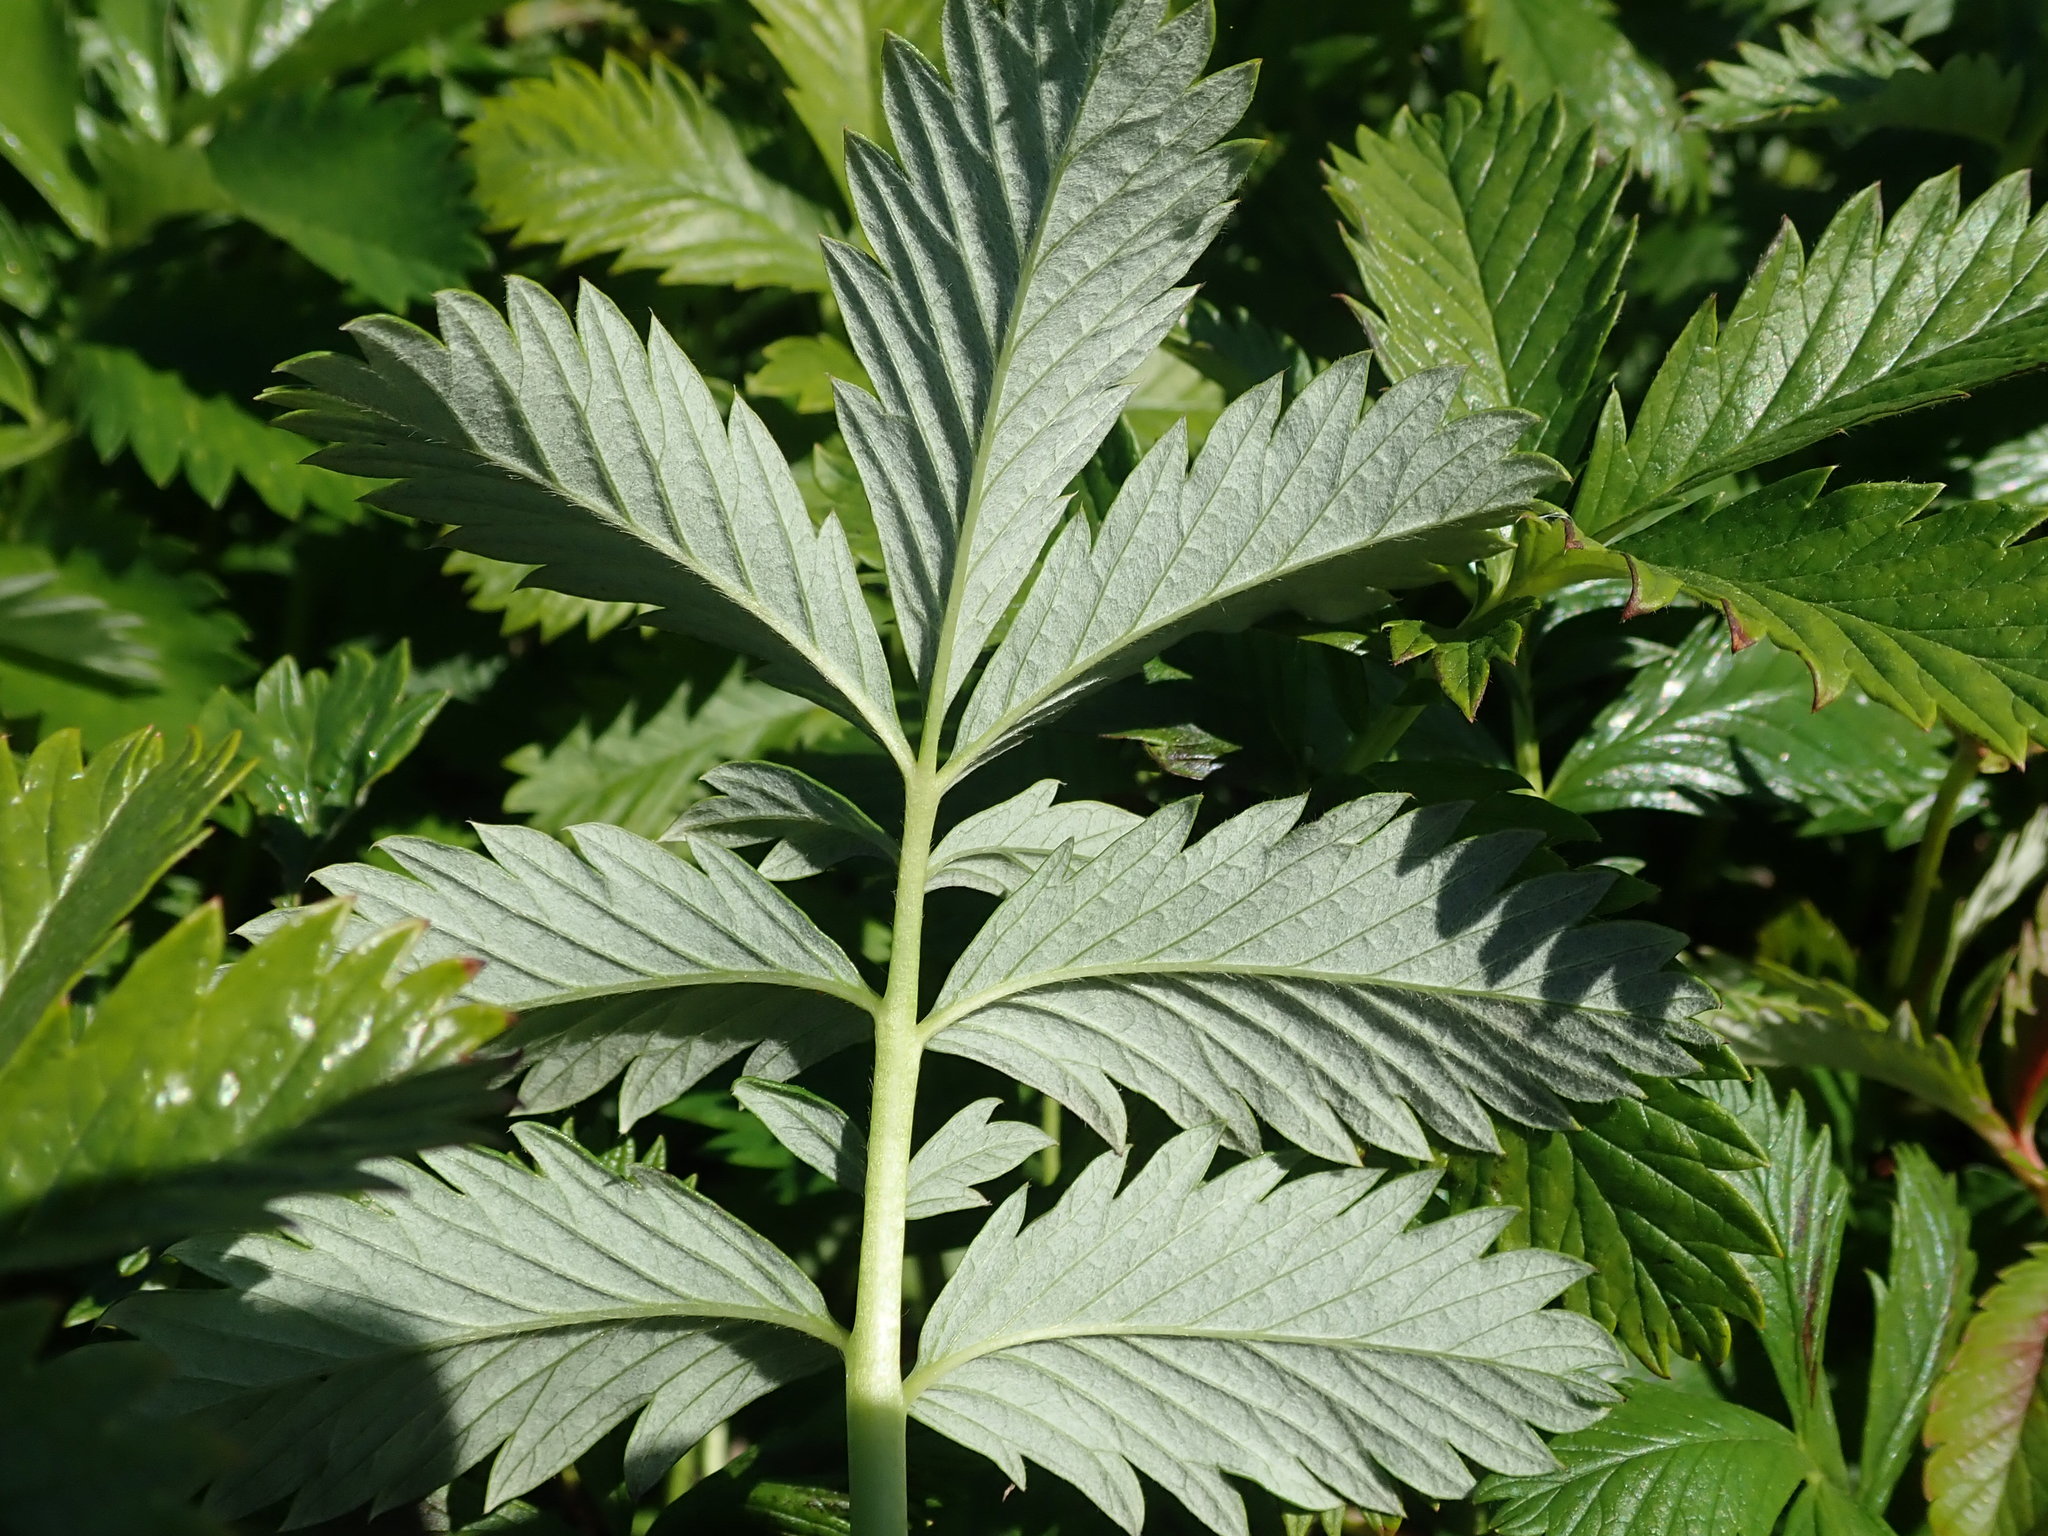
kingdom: Plantae
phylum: Tracheophyta
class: Magnoliopsida
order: Rosales
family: Rosaceae
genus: Argentina
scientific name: Argentina anserina
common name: Common silverweed
